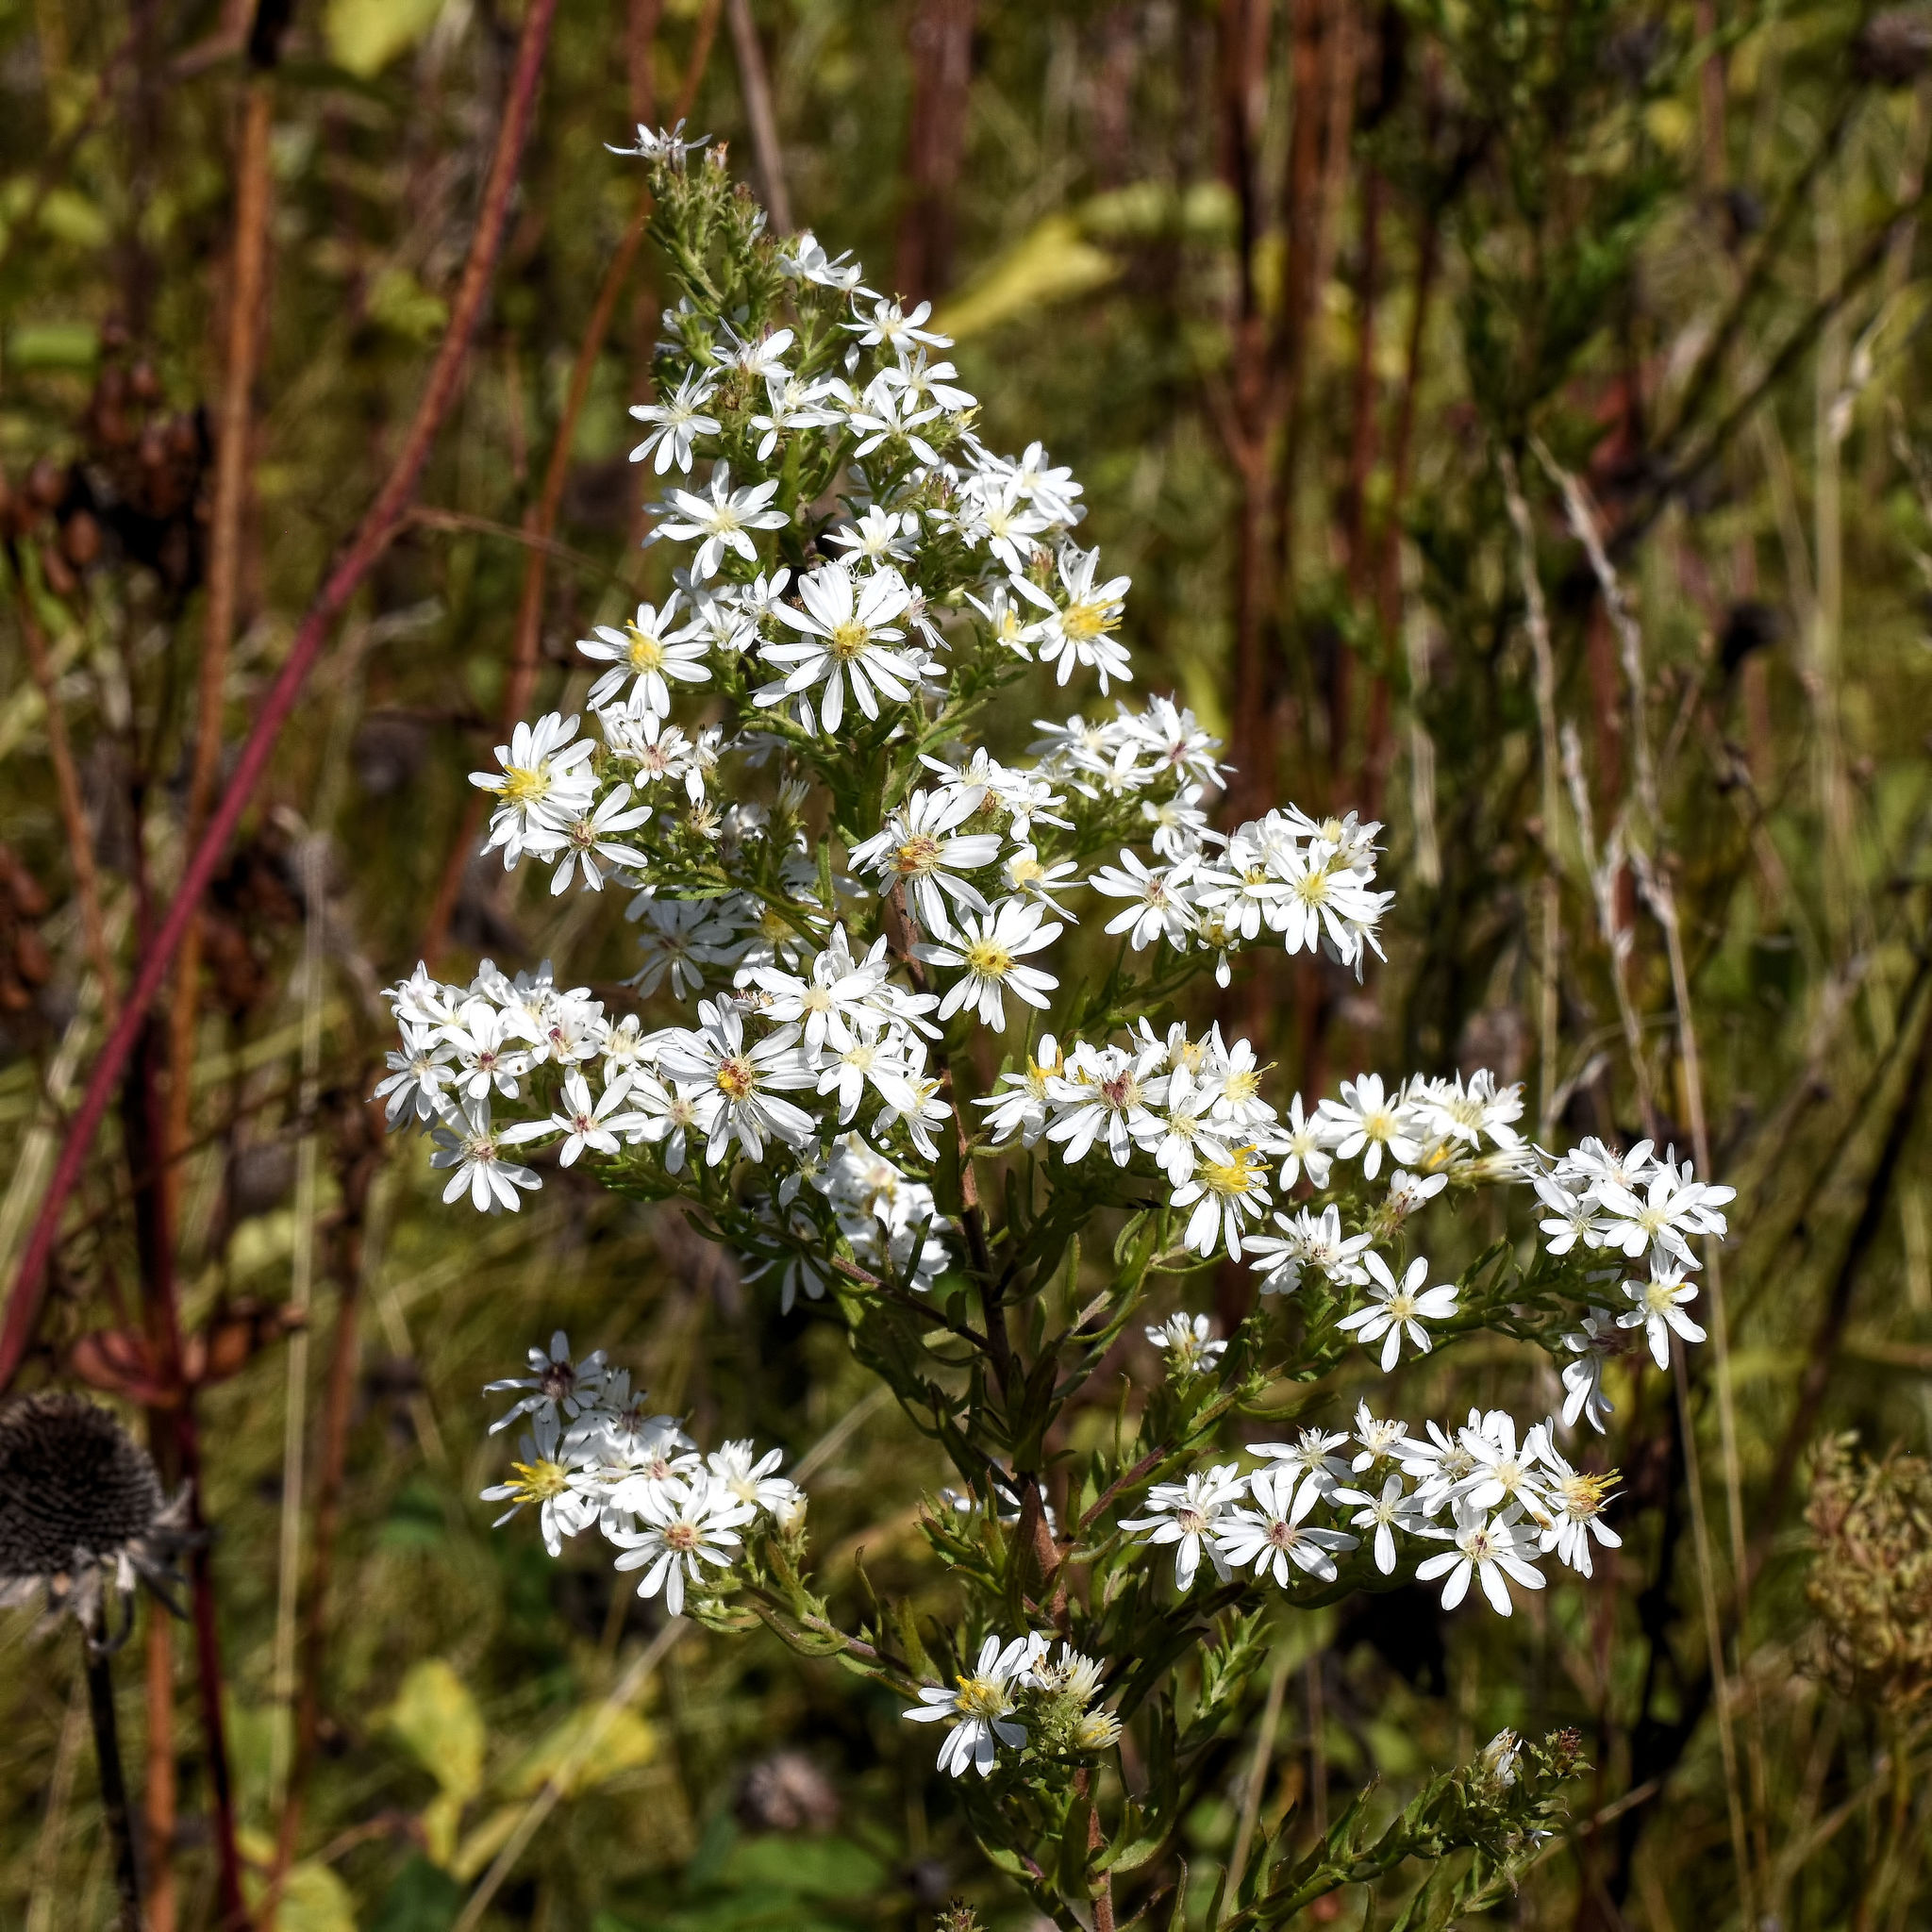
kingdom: Plantae
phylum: Tracheophyta
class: Magnoliopsida
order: Asterales
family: Asteraceae
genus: Symphyotrichum
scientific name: Symphyotrichum ericoides
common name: Heath aster
